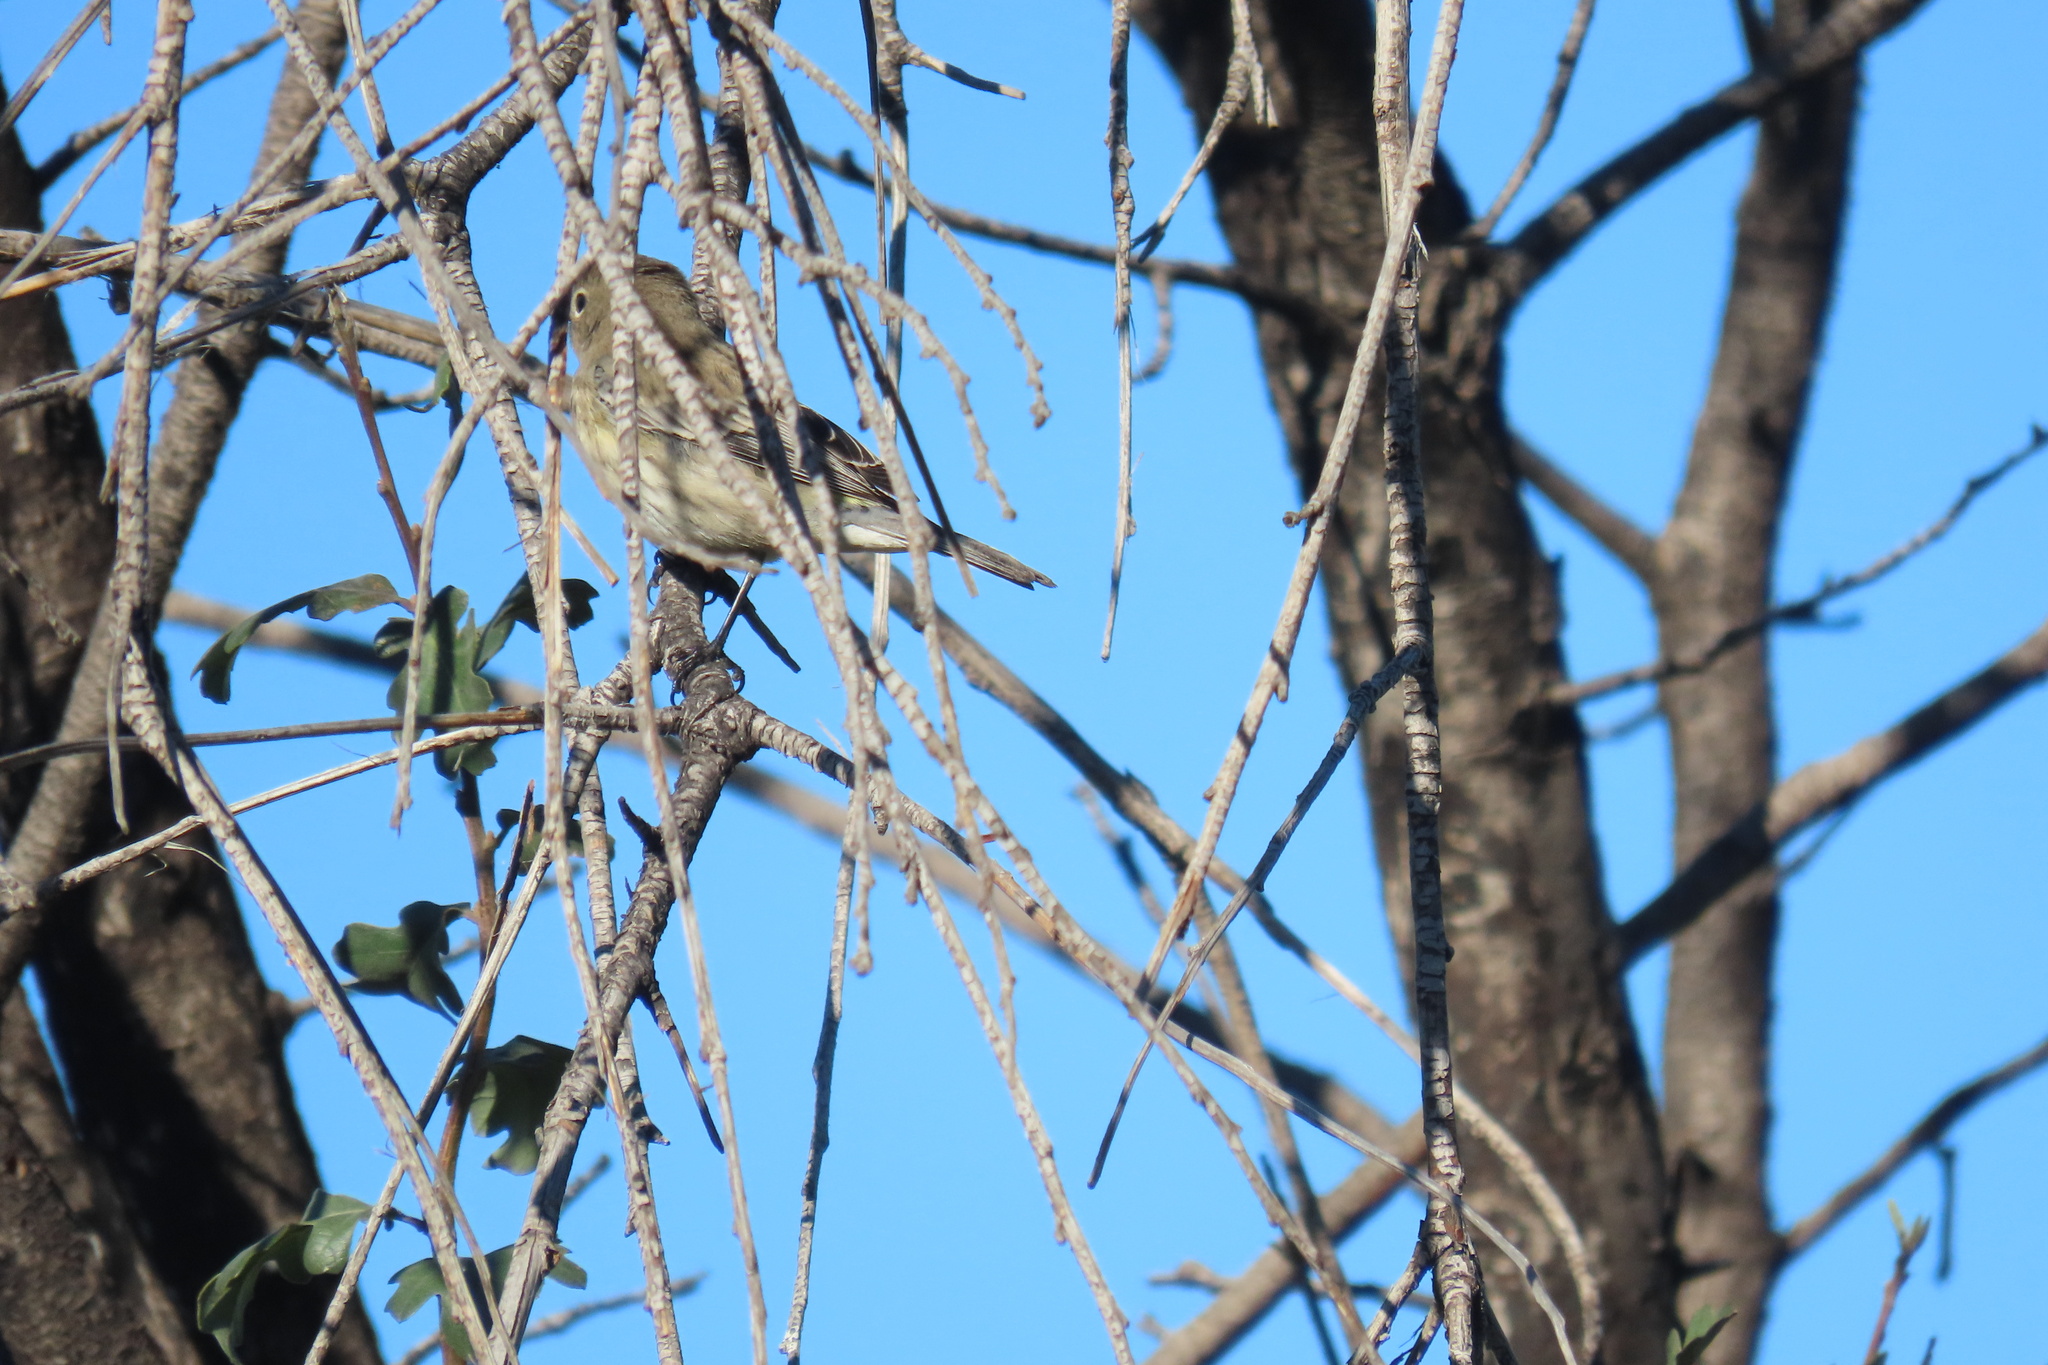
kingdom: Animalia
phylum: Chordata
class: Aves
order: Passeriformes
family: Parulidae
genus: Setophaga
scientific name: Setophaga coronata
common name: Myrtle warbler
